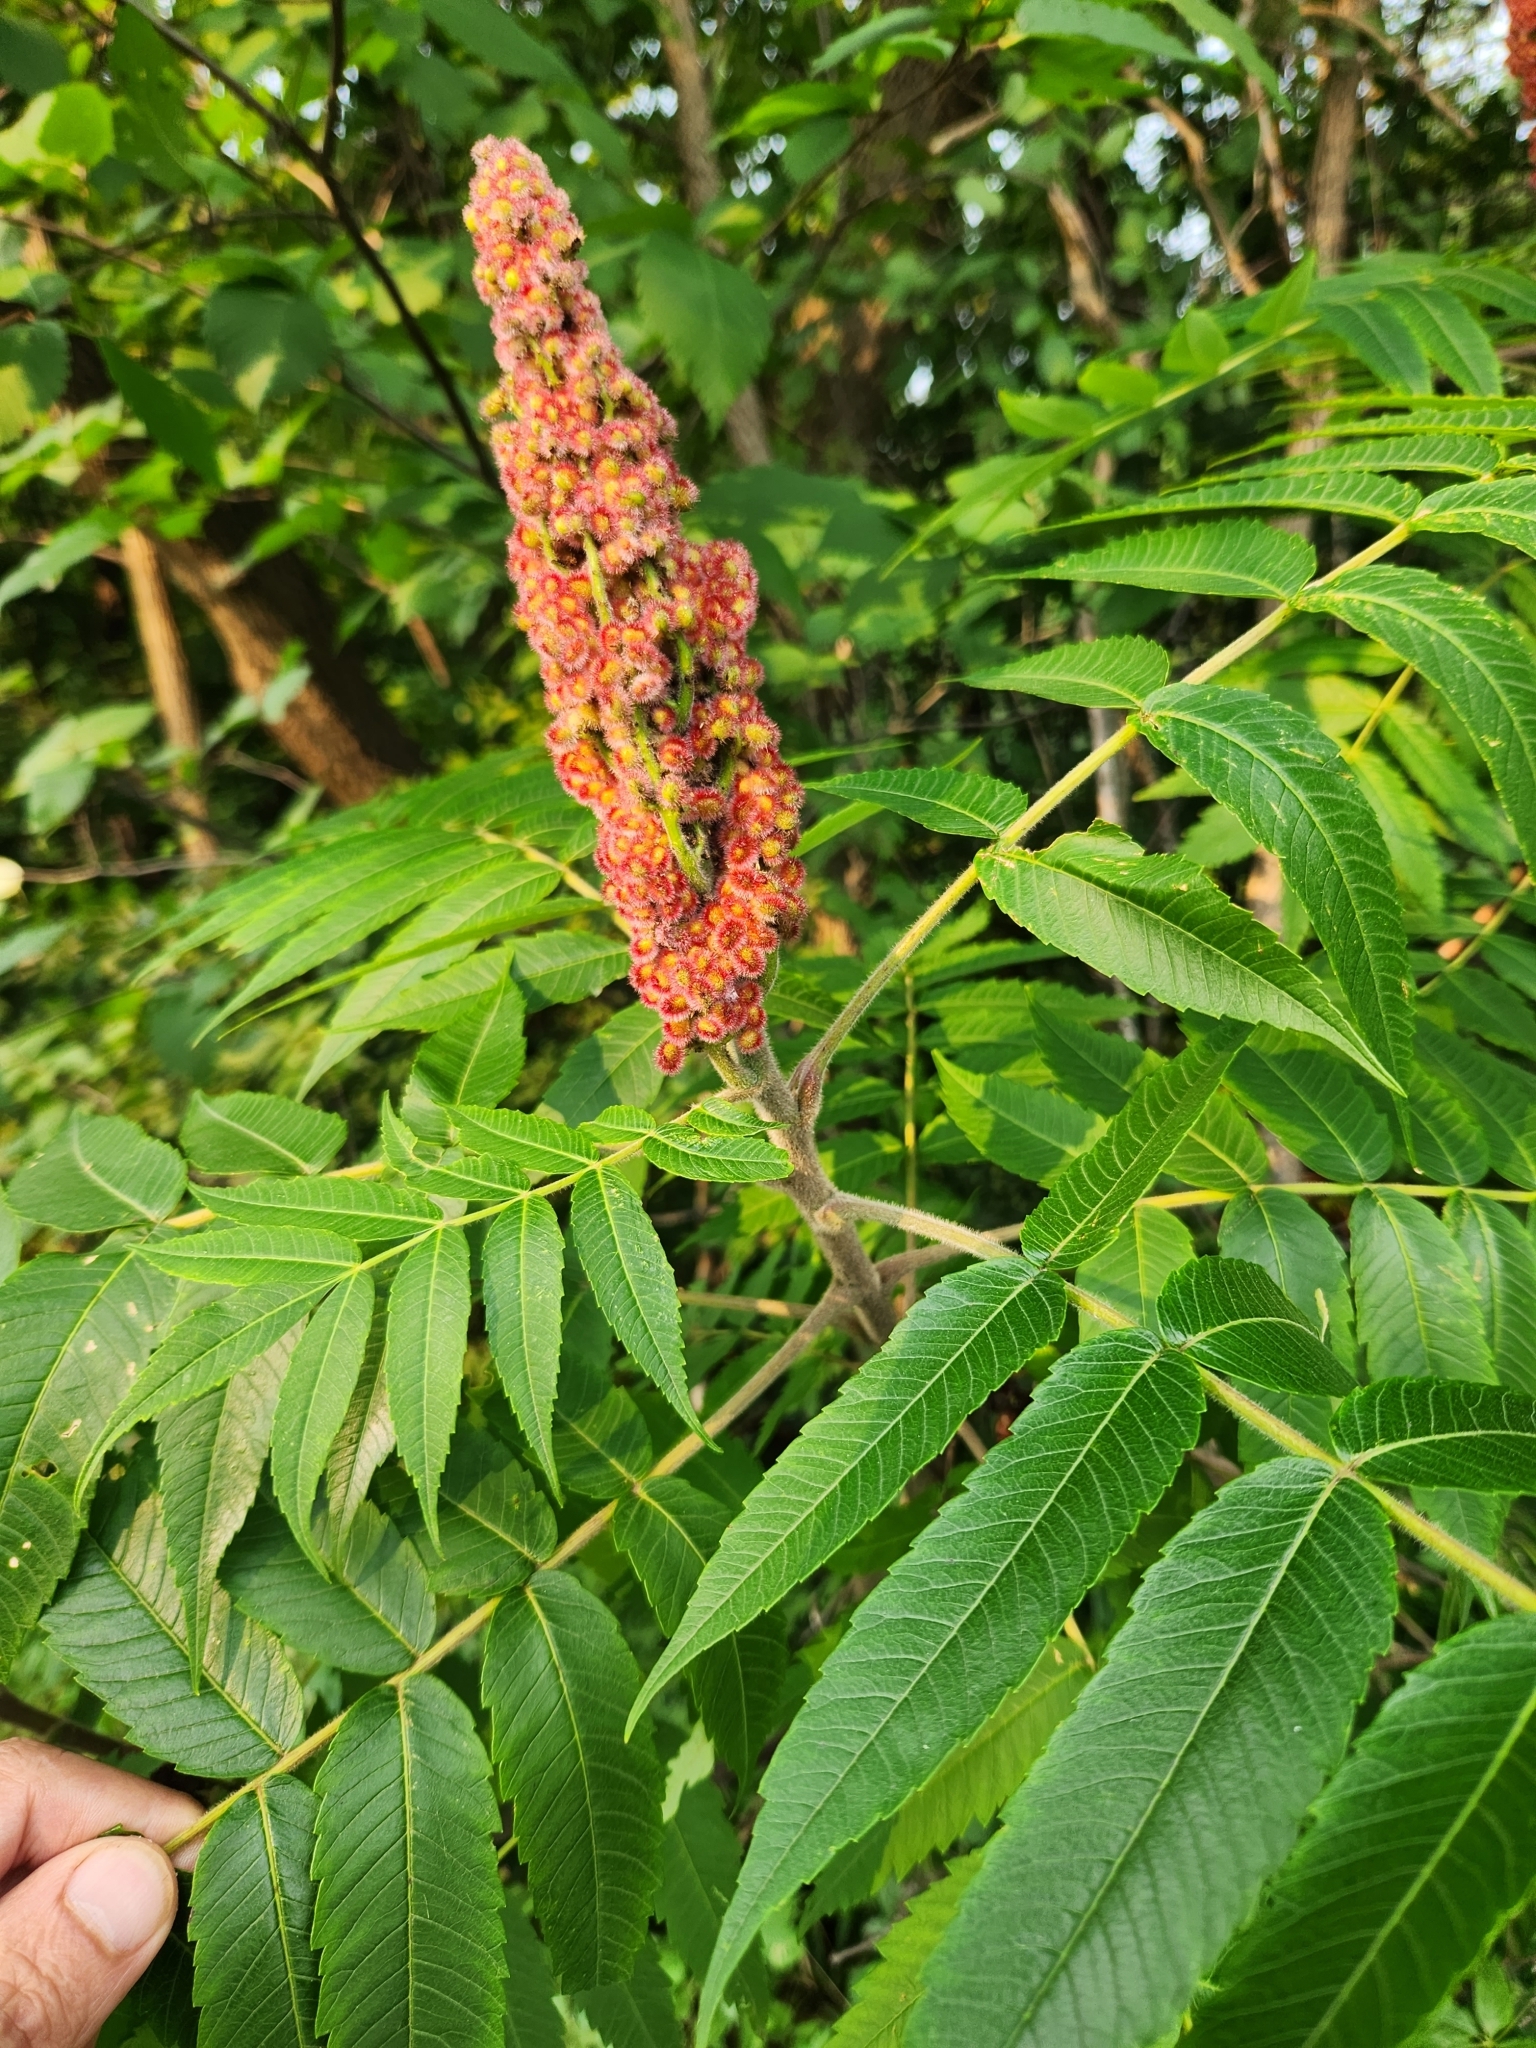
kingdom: Plantae
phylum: Tracheophyta
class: Magnoliopsida
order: Sapindales
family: Anacardiaceae
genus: Rhus
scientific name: Rhus typhina
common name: Staghorn sumac
